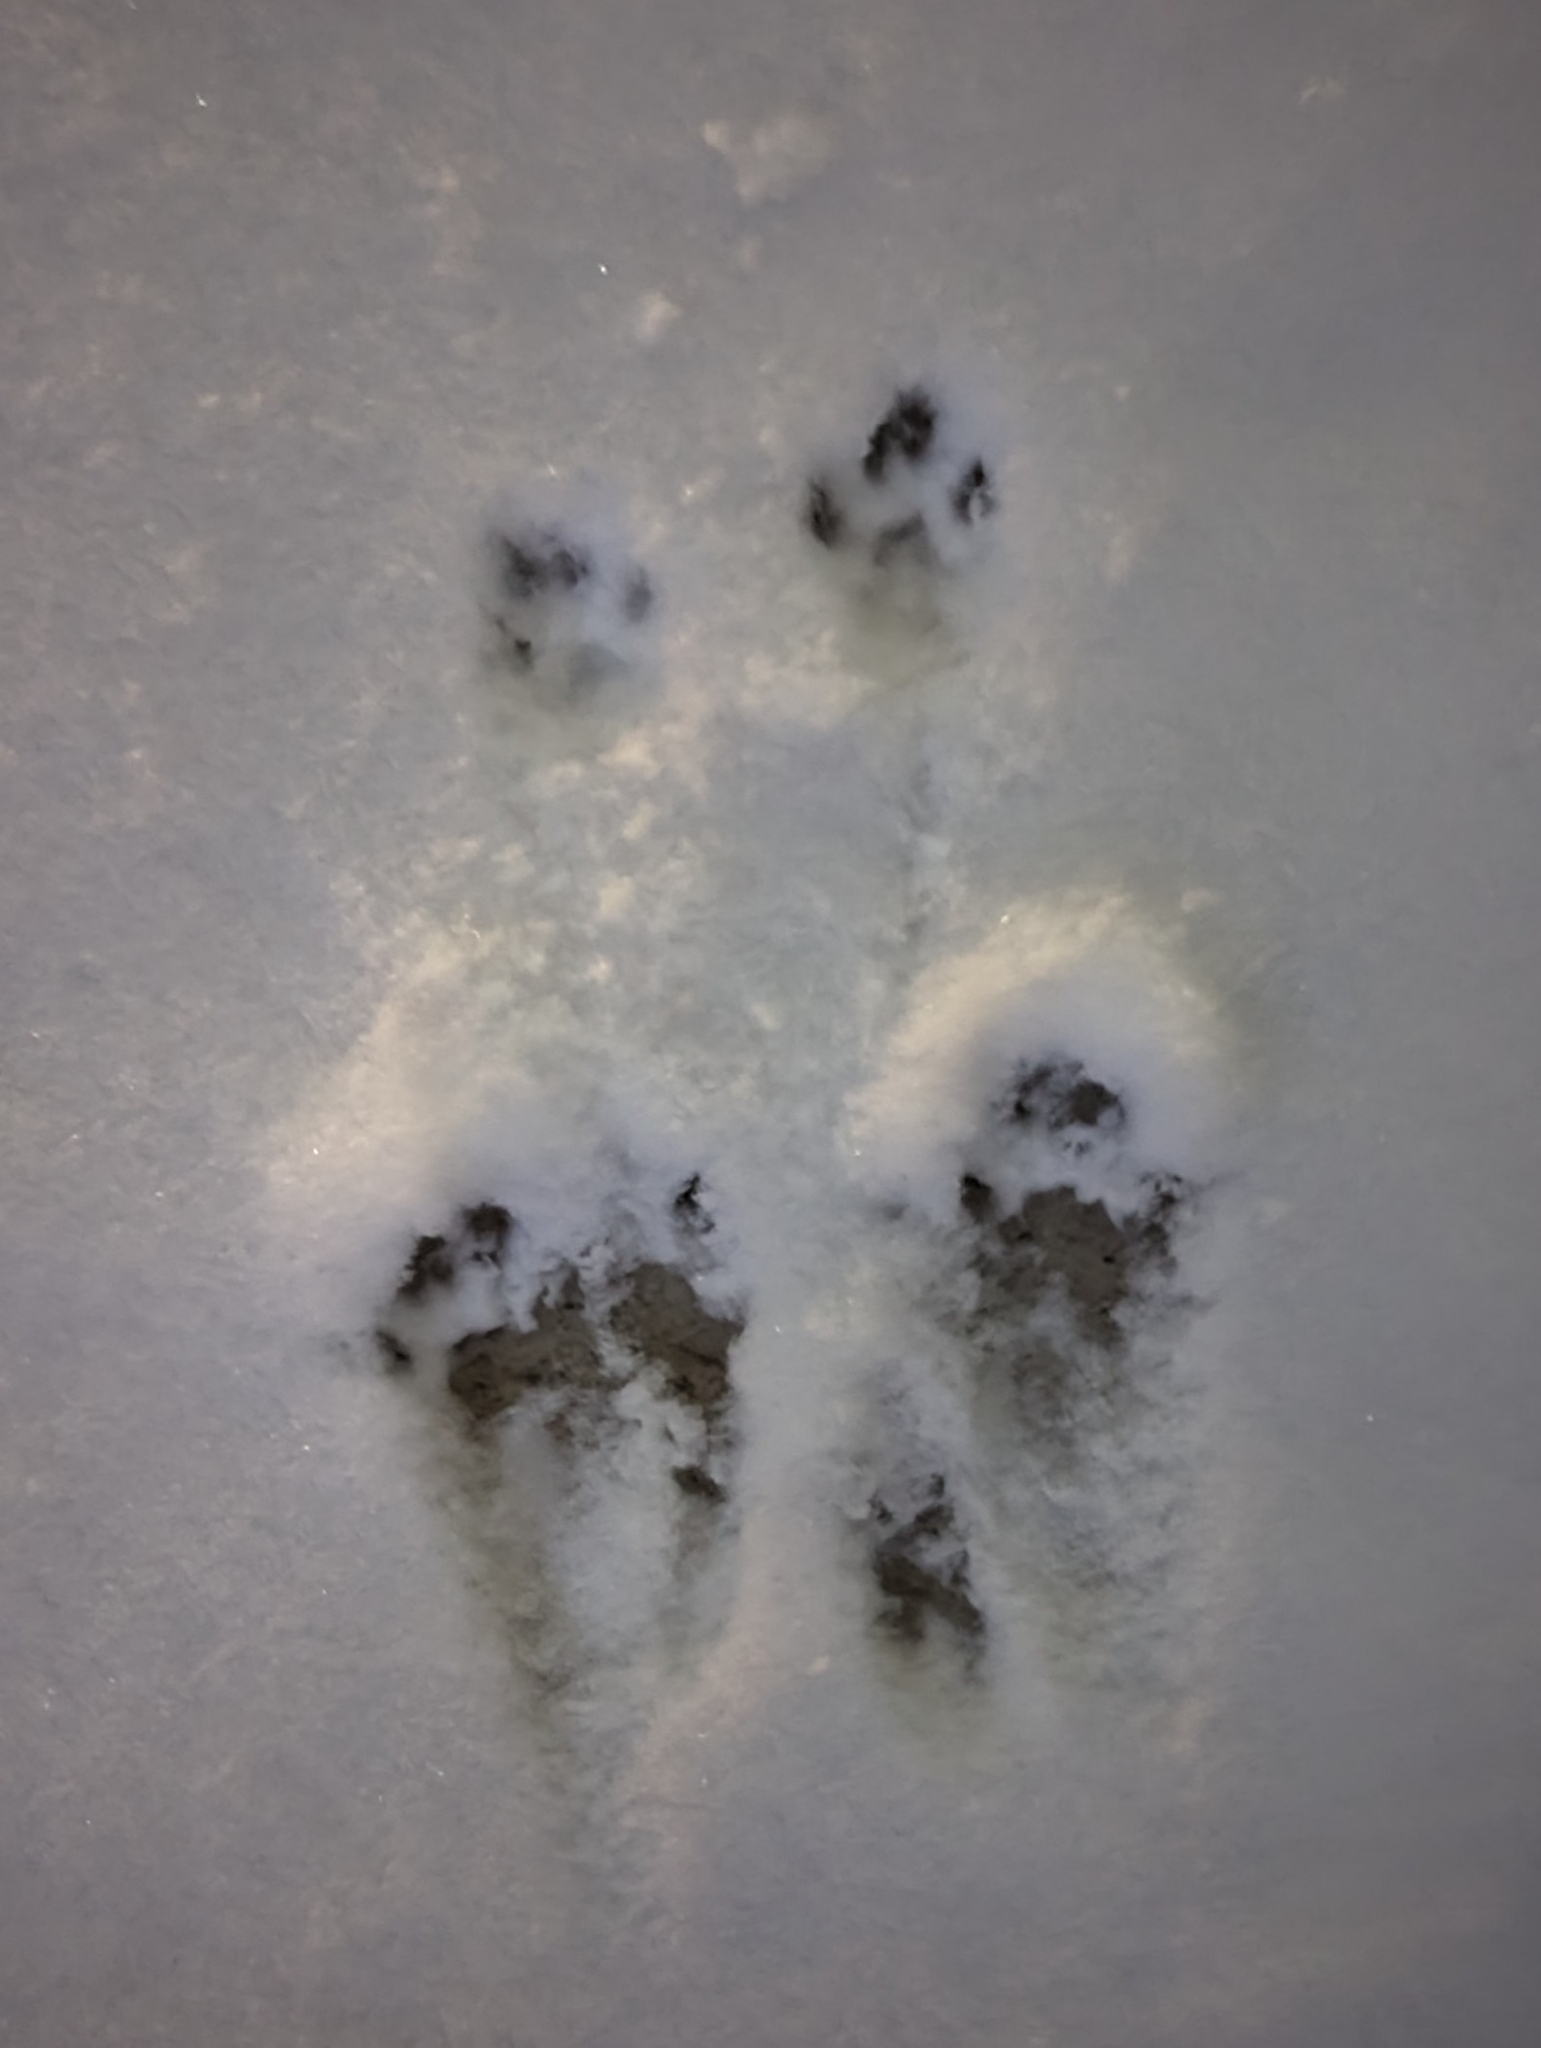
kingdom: Animalia
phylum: Chordata
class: Mammalia
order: Rodentia
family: Sciuridae
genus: Sciurus
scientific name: Sciurus carolinensis
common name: Eastern gray squirrel
